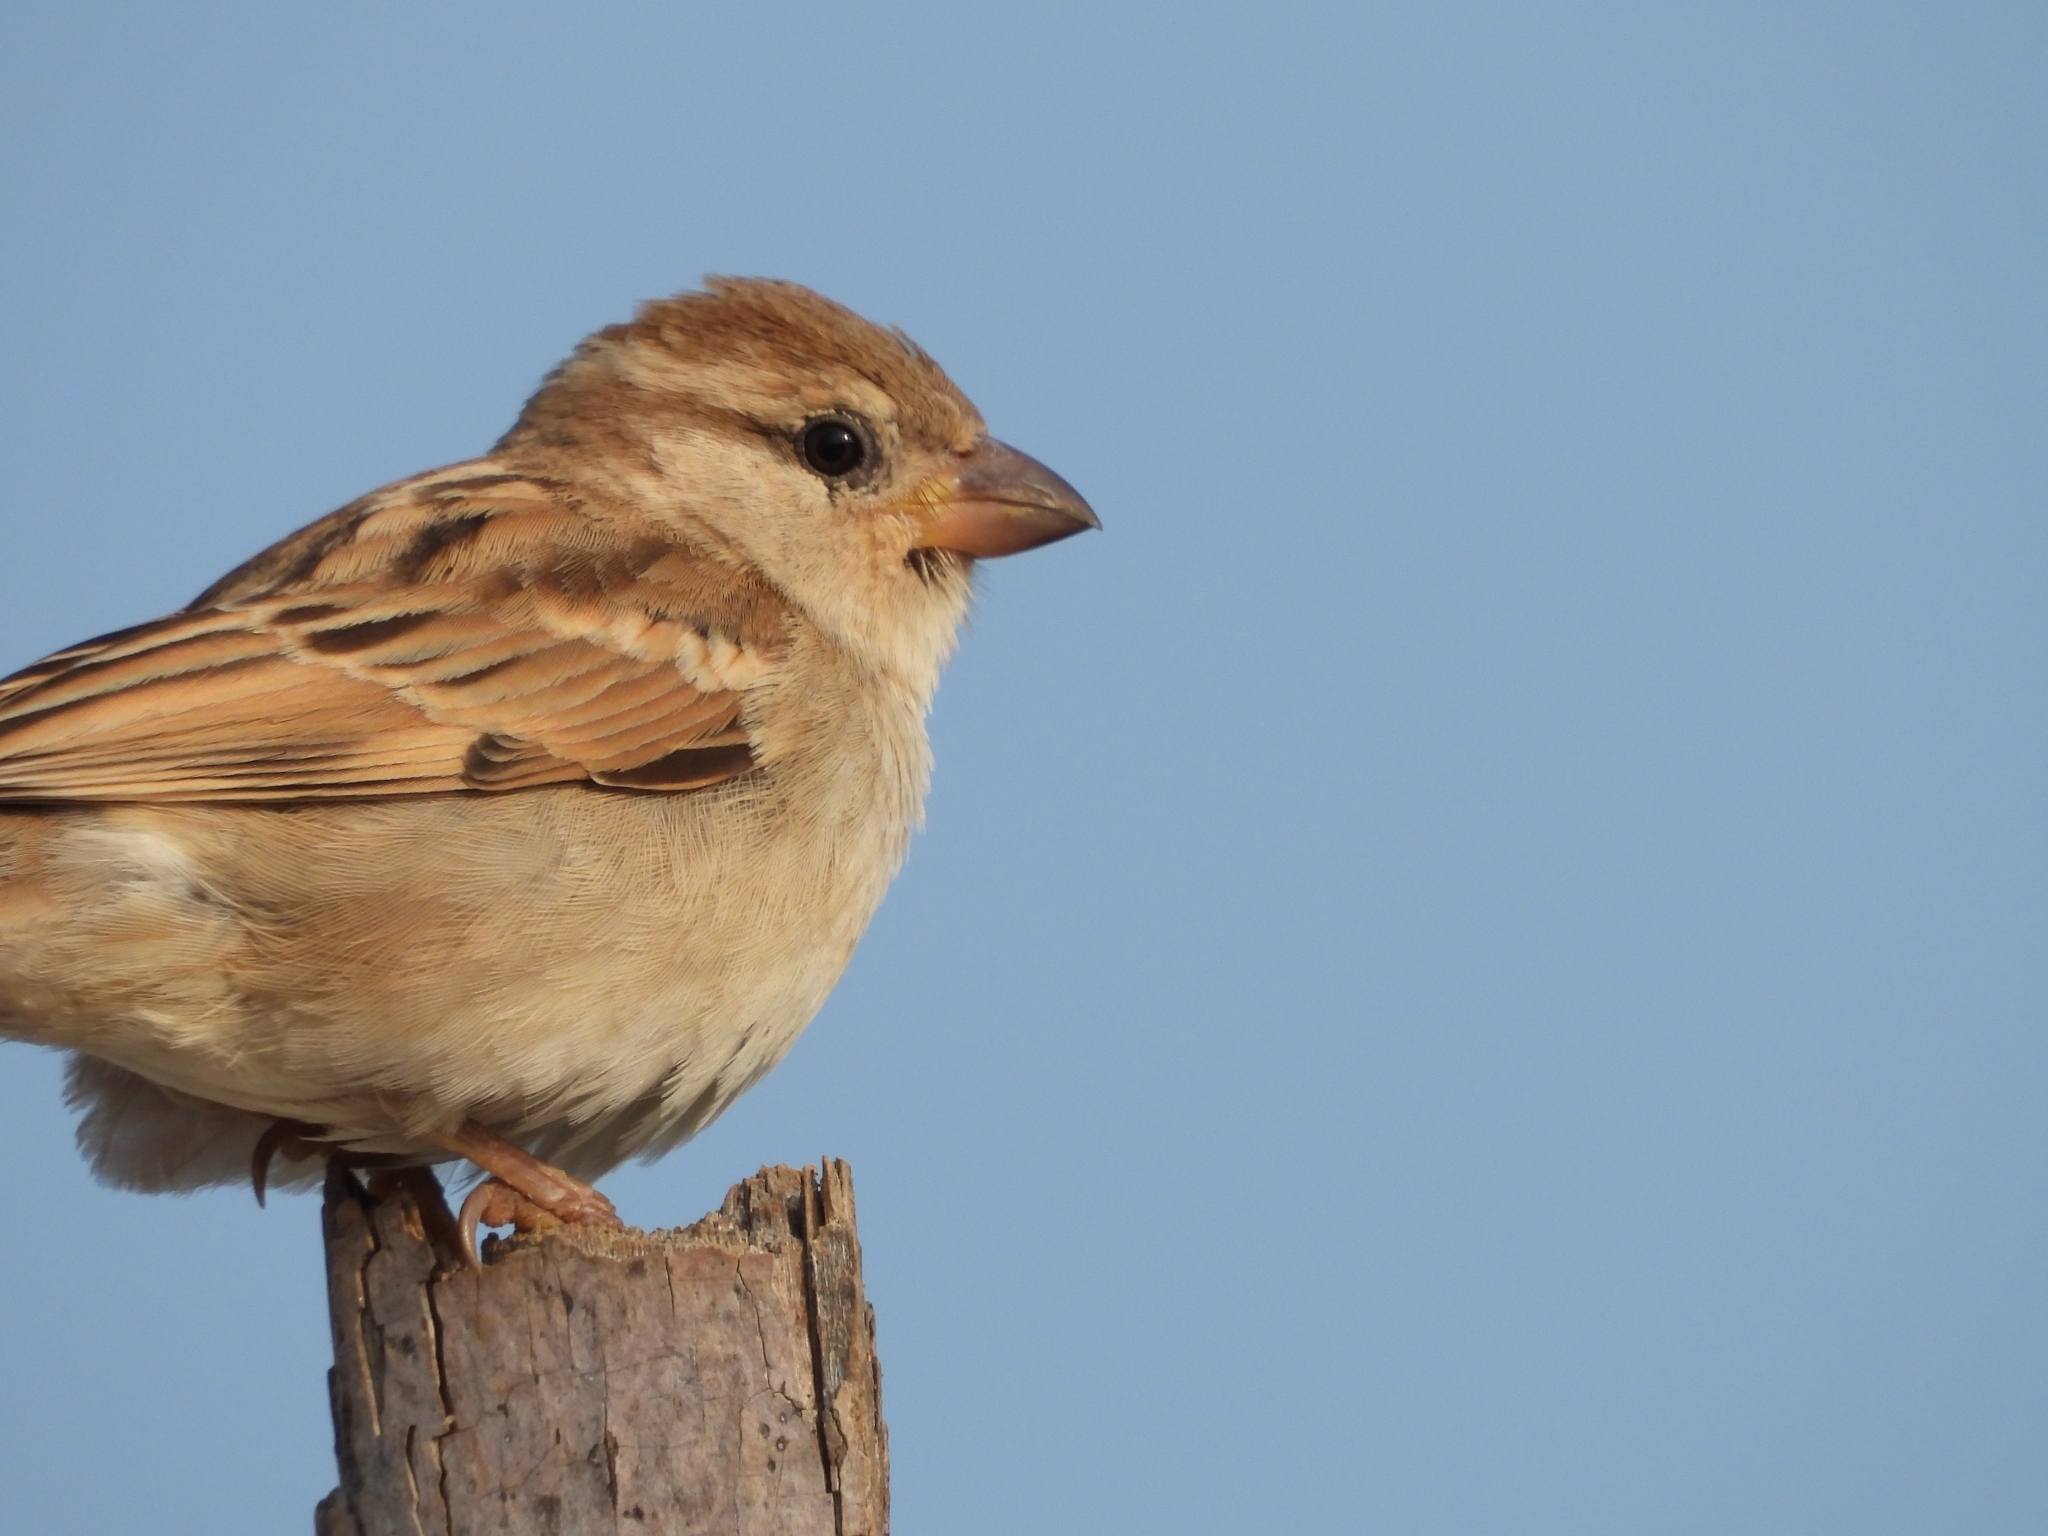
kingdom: Animalia
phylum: Chordata
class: Aves
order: Passeriformes
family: Passeridae
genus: Passer
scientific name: Passer domesticus
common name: House sparrow
